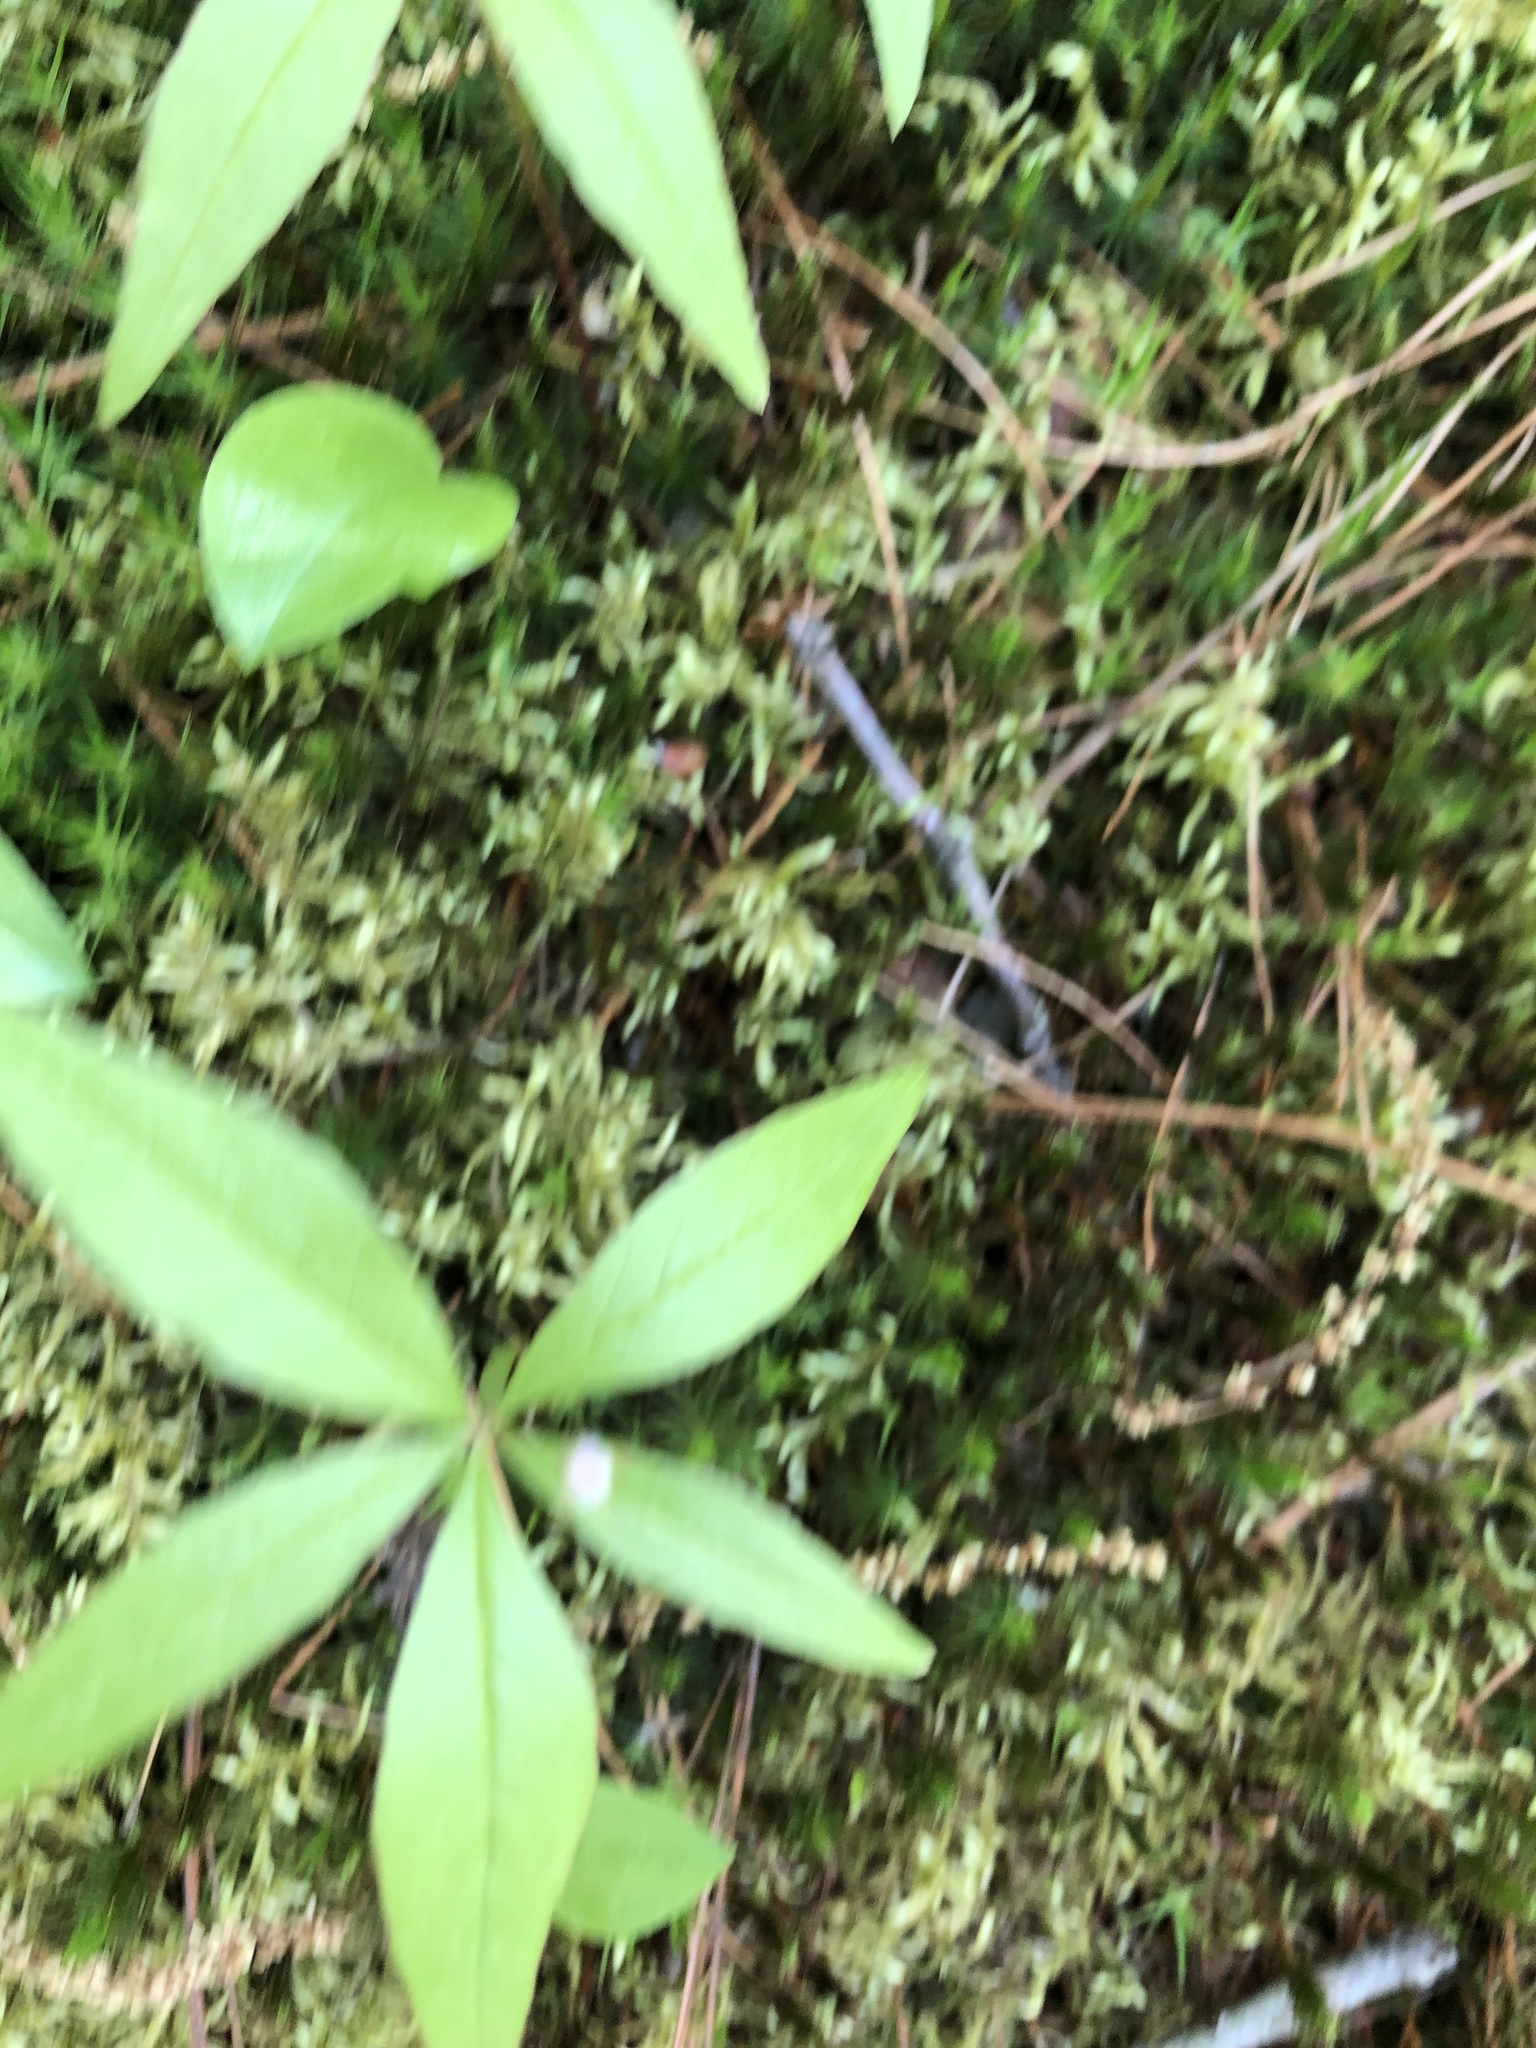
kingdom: Plantae
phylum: Tracheophyta
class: Magnoliopsida
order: Ericales
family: Primulaceae
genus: Lysimachia
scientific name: Lysimachia borealis
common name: American starflower
